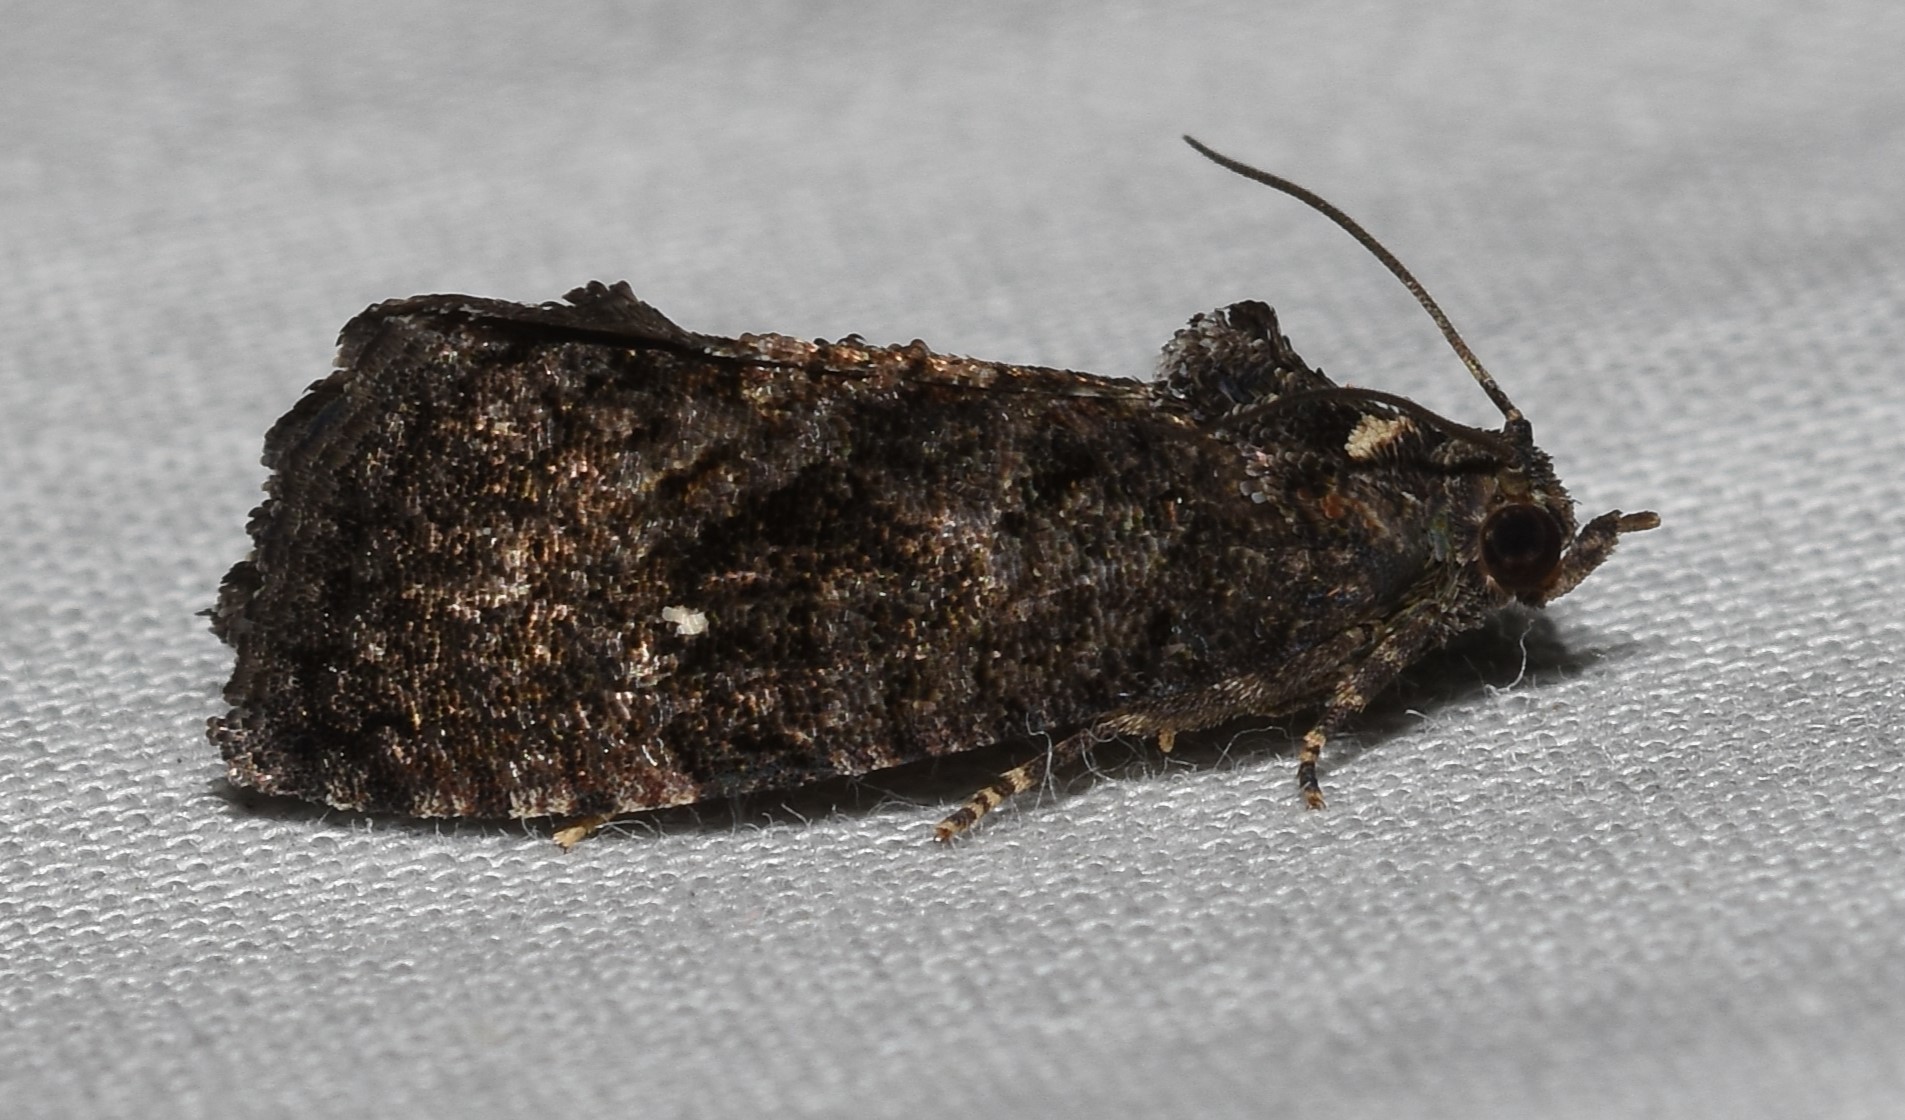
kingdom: Animalia
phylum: Arthropoda
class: Insecta
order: Lepidoptera
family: Tortricidae
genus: Gymnandrosoma
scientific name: Gymnandrosoma punctidiscanum
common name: Dotted ecdytolopha moth
